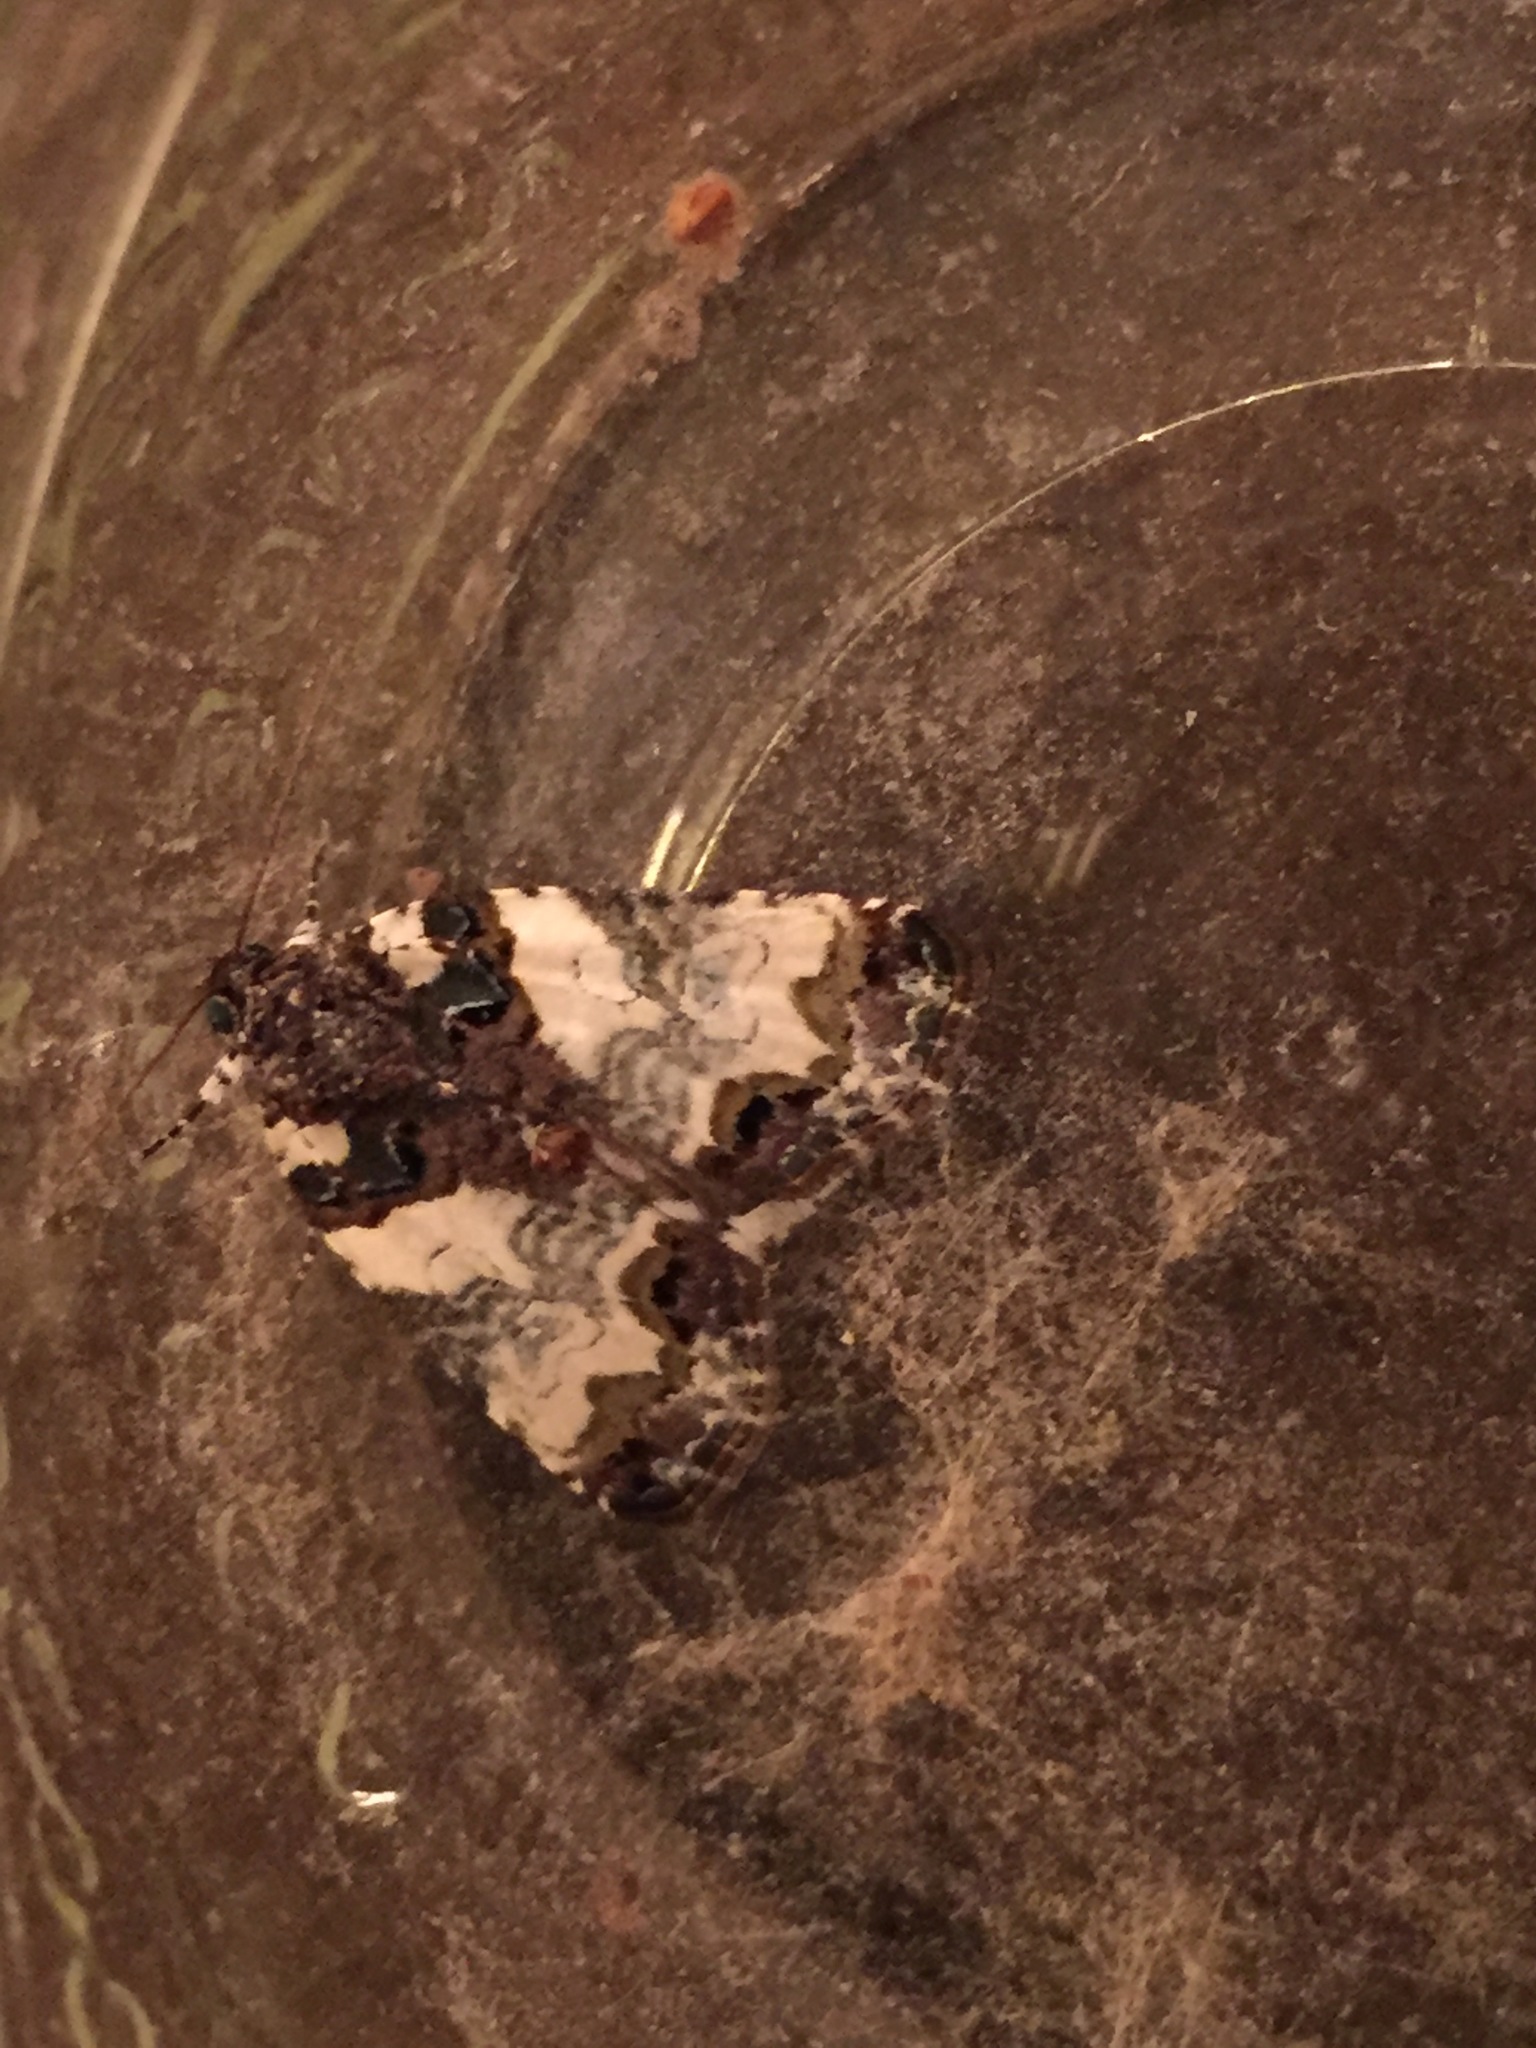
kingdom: Animalia
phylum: Arthropoda
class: Insecta
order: Lepidoptera
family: Noctuidae
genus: Cerma
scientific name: Cerma cerintha
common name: Tufted bird-dropping moth
